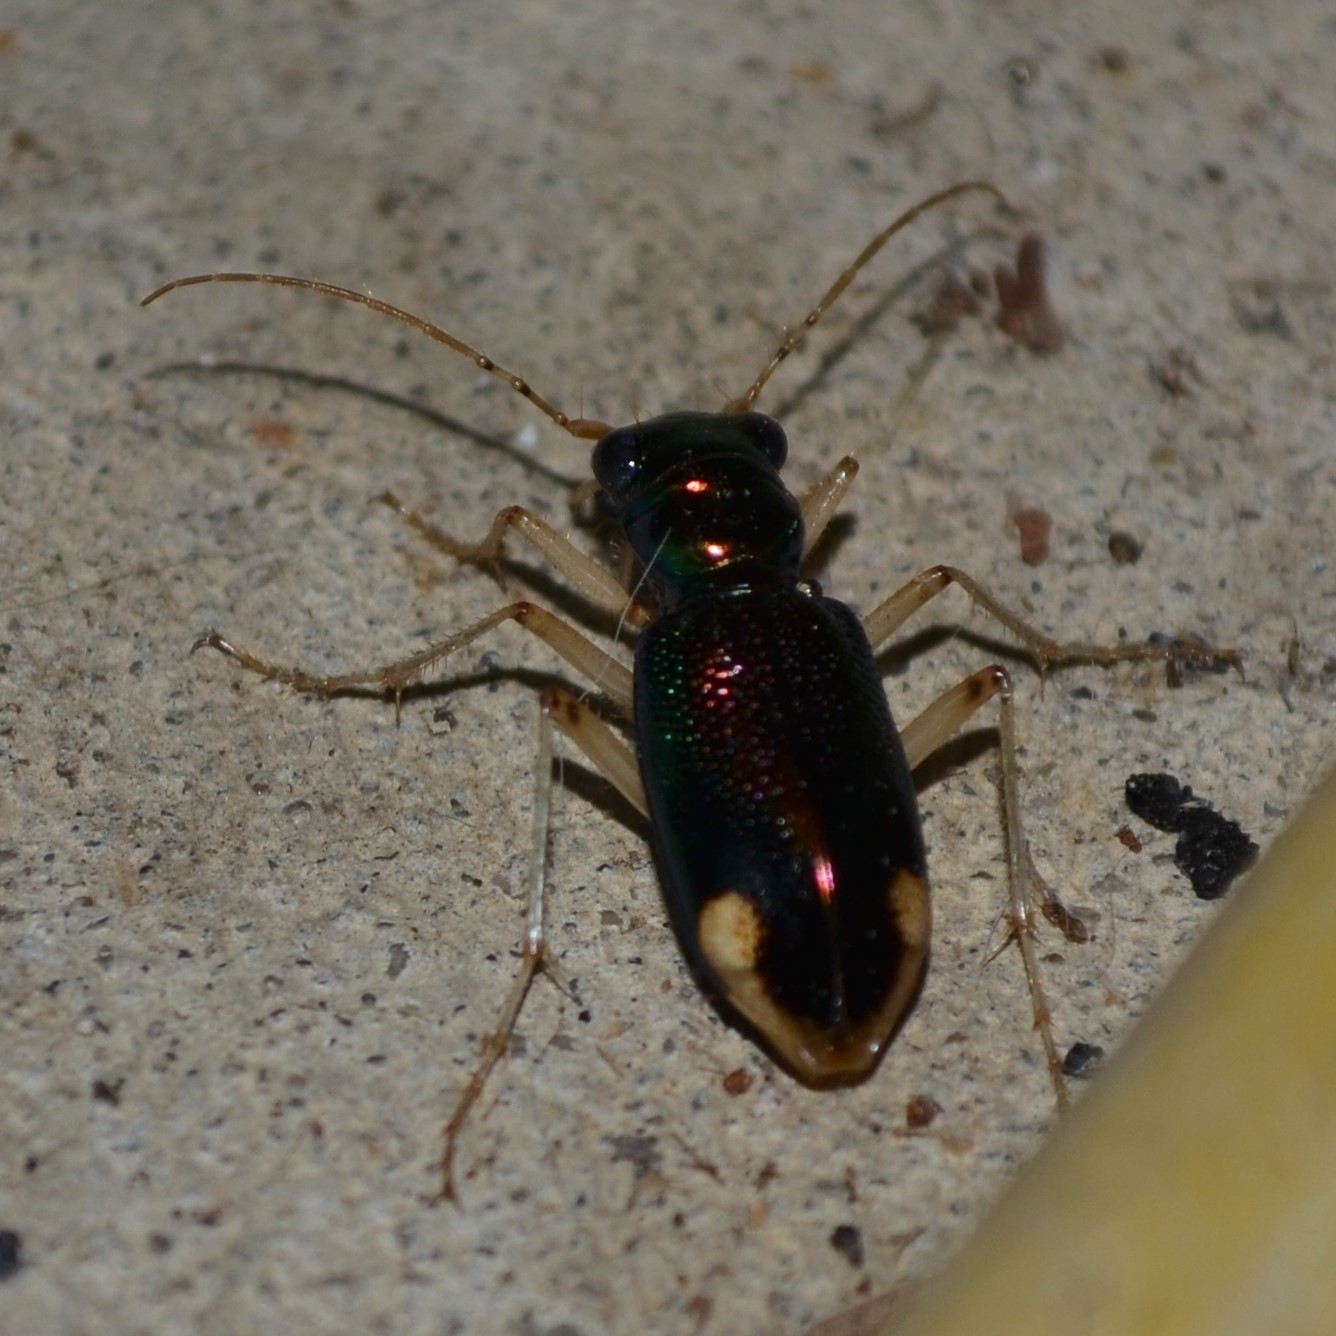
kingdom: Animalia
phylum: Arthropoda
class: Insecta
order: Coleoptera
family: Carabidae
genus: Tetracha
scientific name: Tetracha carolina
